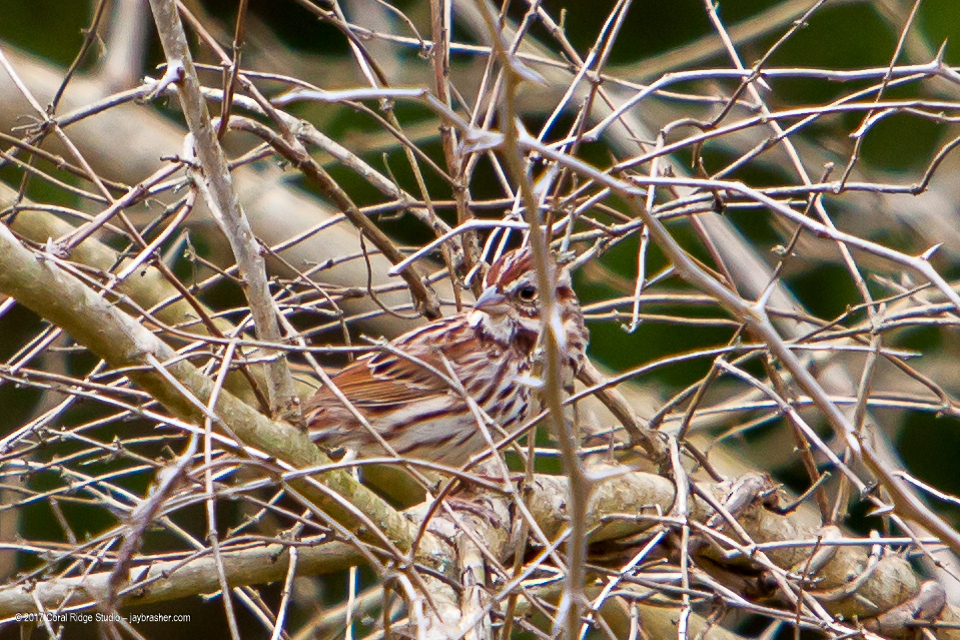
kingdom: Animalia
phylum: Chordata
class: Aves
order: Passeriformes
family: Passerellidae
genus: Melospiza
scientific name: Melospiza melodia
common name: Song sparrow
